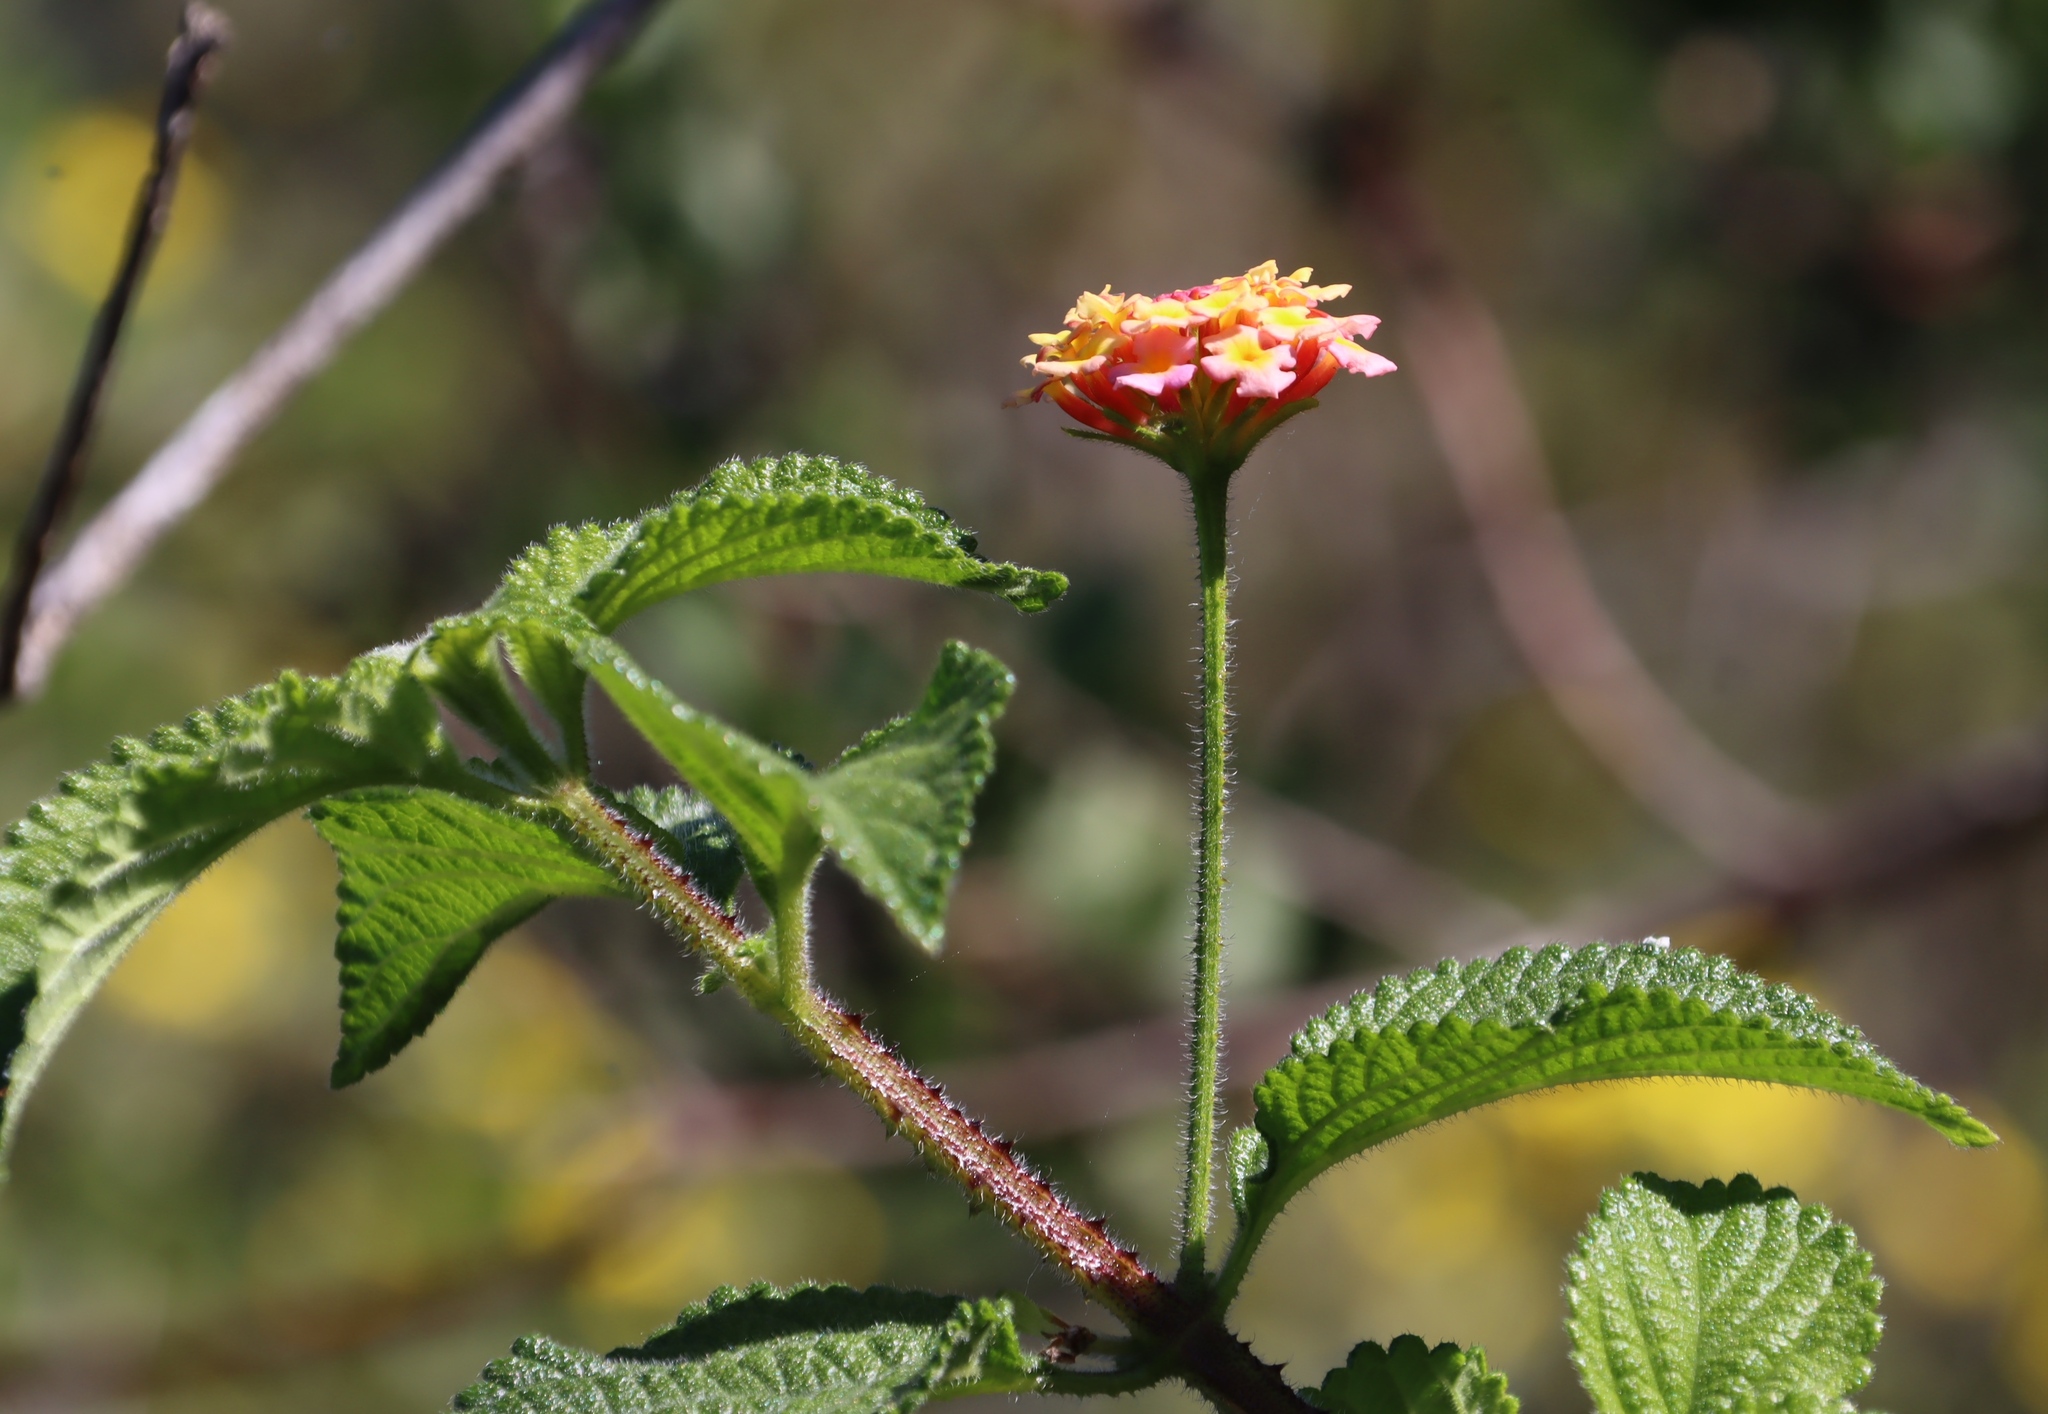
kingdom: Plantae
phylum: Tracheophyta
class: Magnoliopsida
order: Lamiales
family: Verbenaceae
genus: Lantana
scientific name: Lantana camara
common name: Lantana
